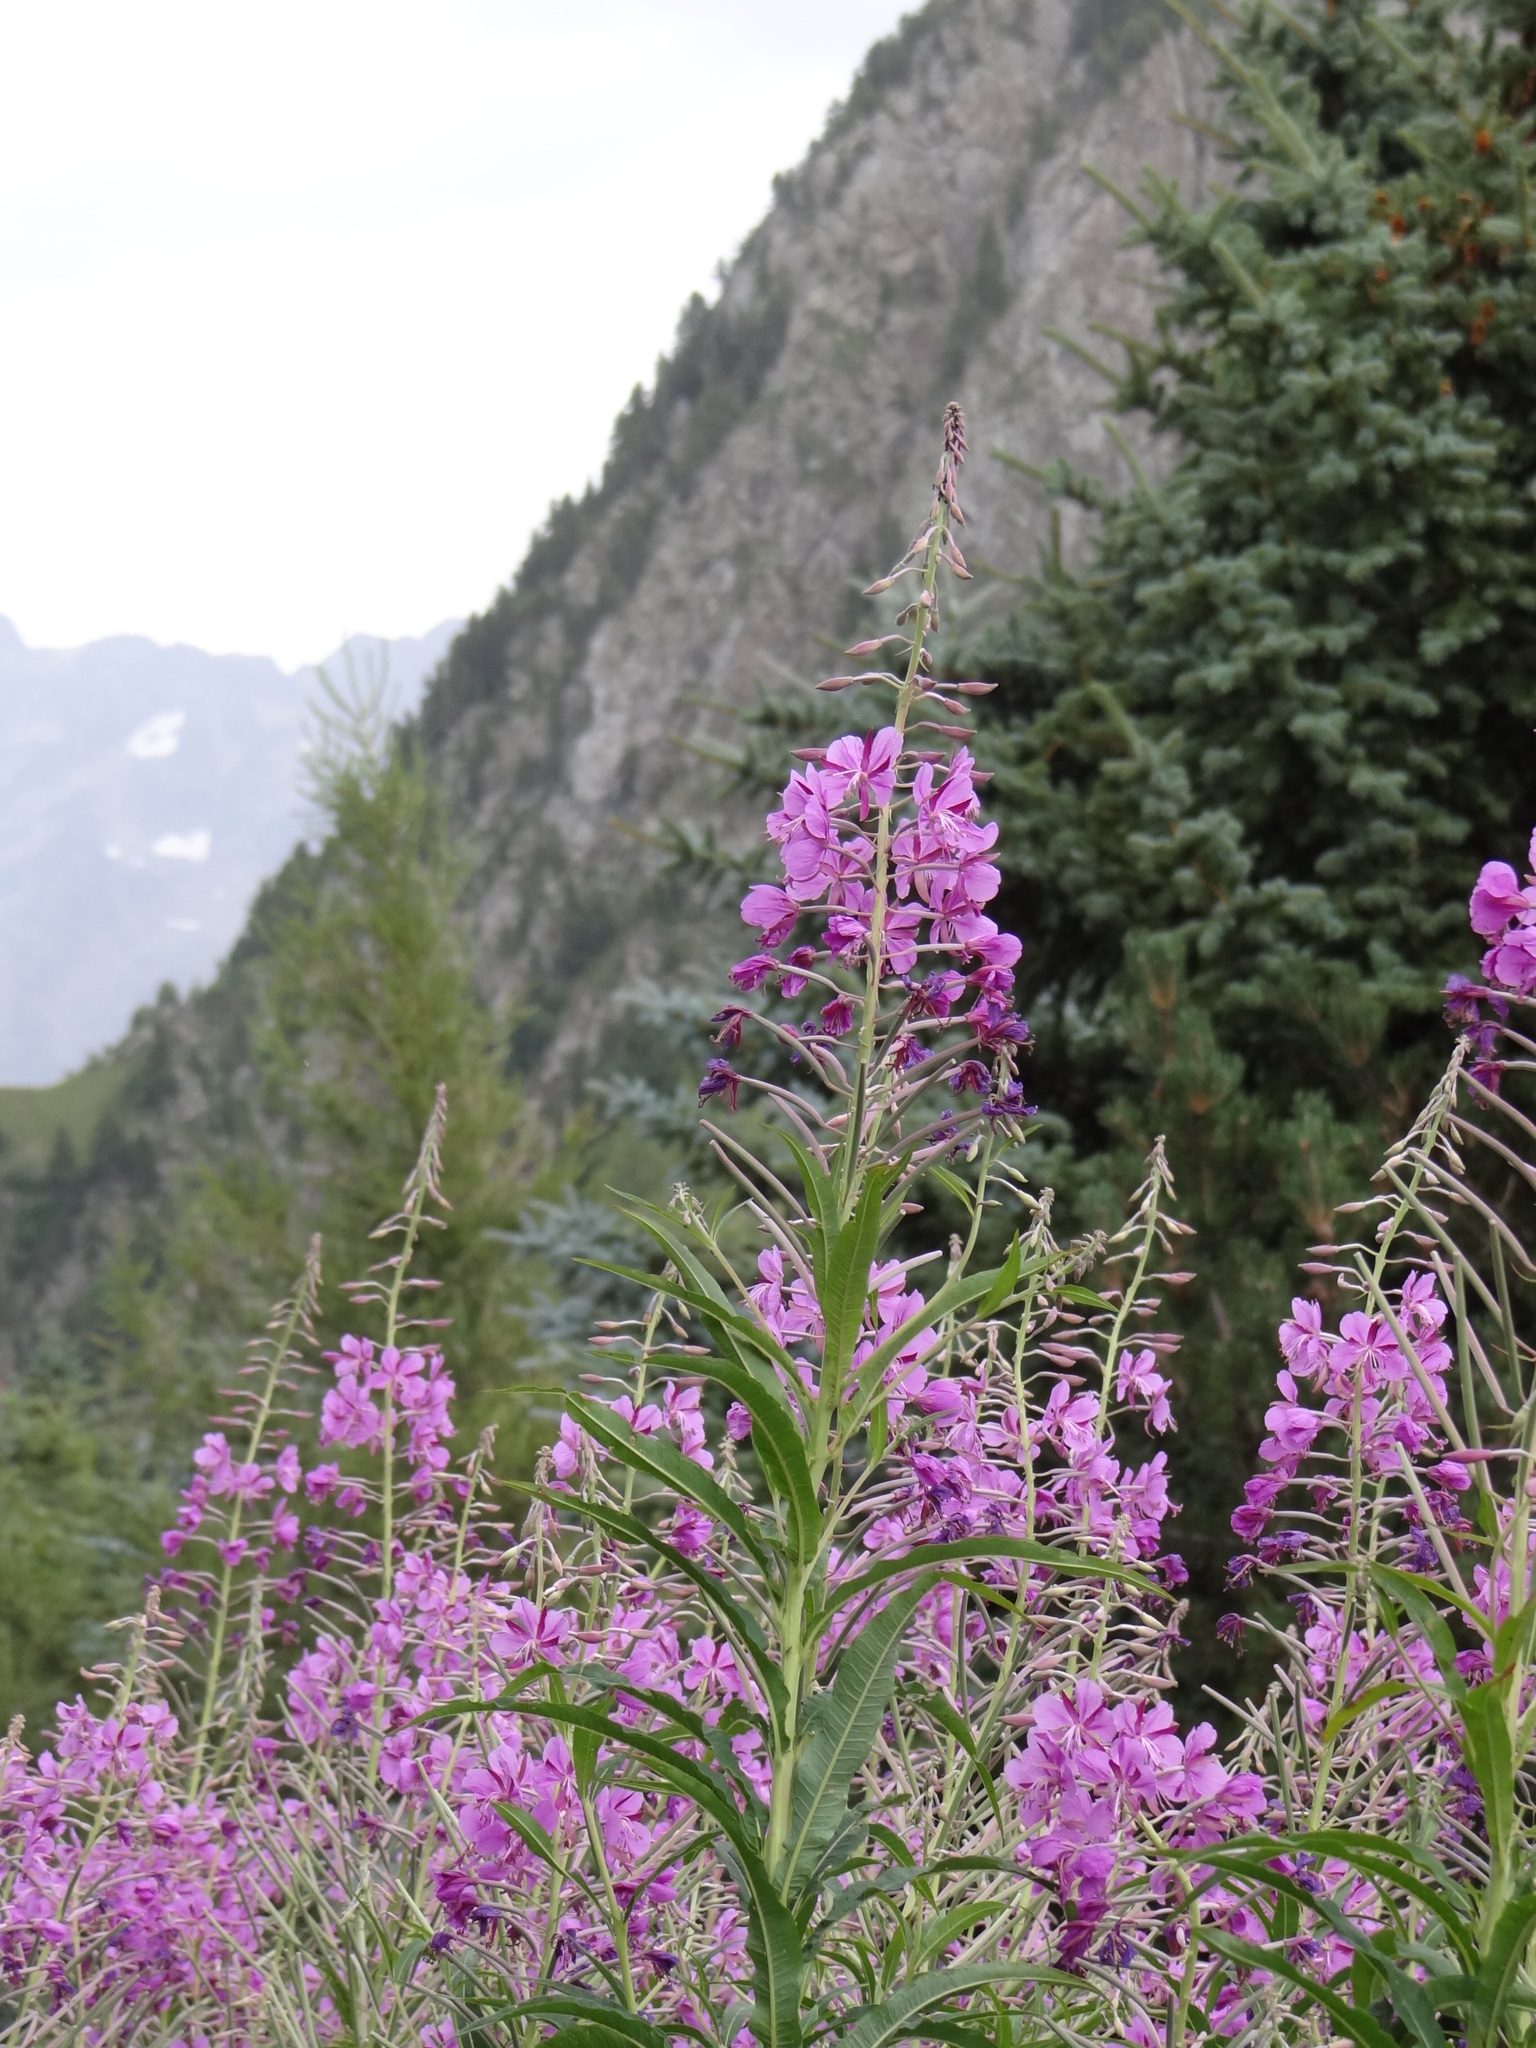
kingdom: Plantae
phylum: Tracheophyta
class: Magnoliopsida
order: Myrtales
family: Onagraceae
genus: Chamaenerion
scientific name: Chamaenerion angustifolium
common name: Fireweed
